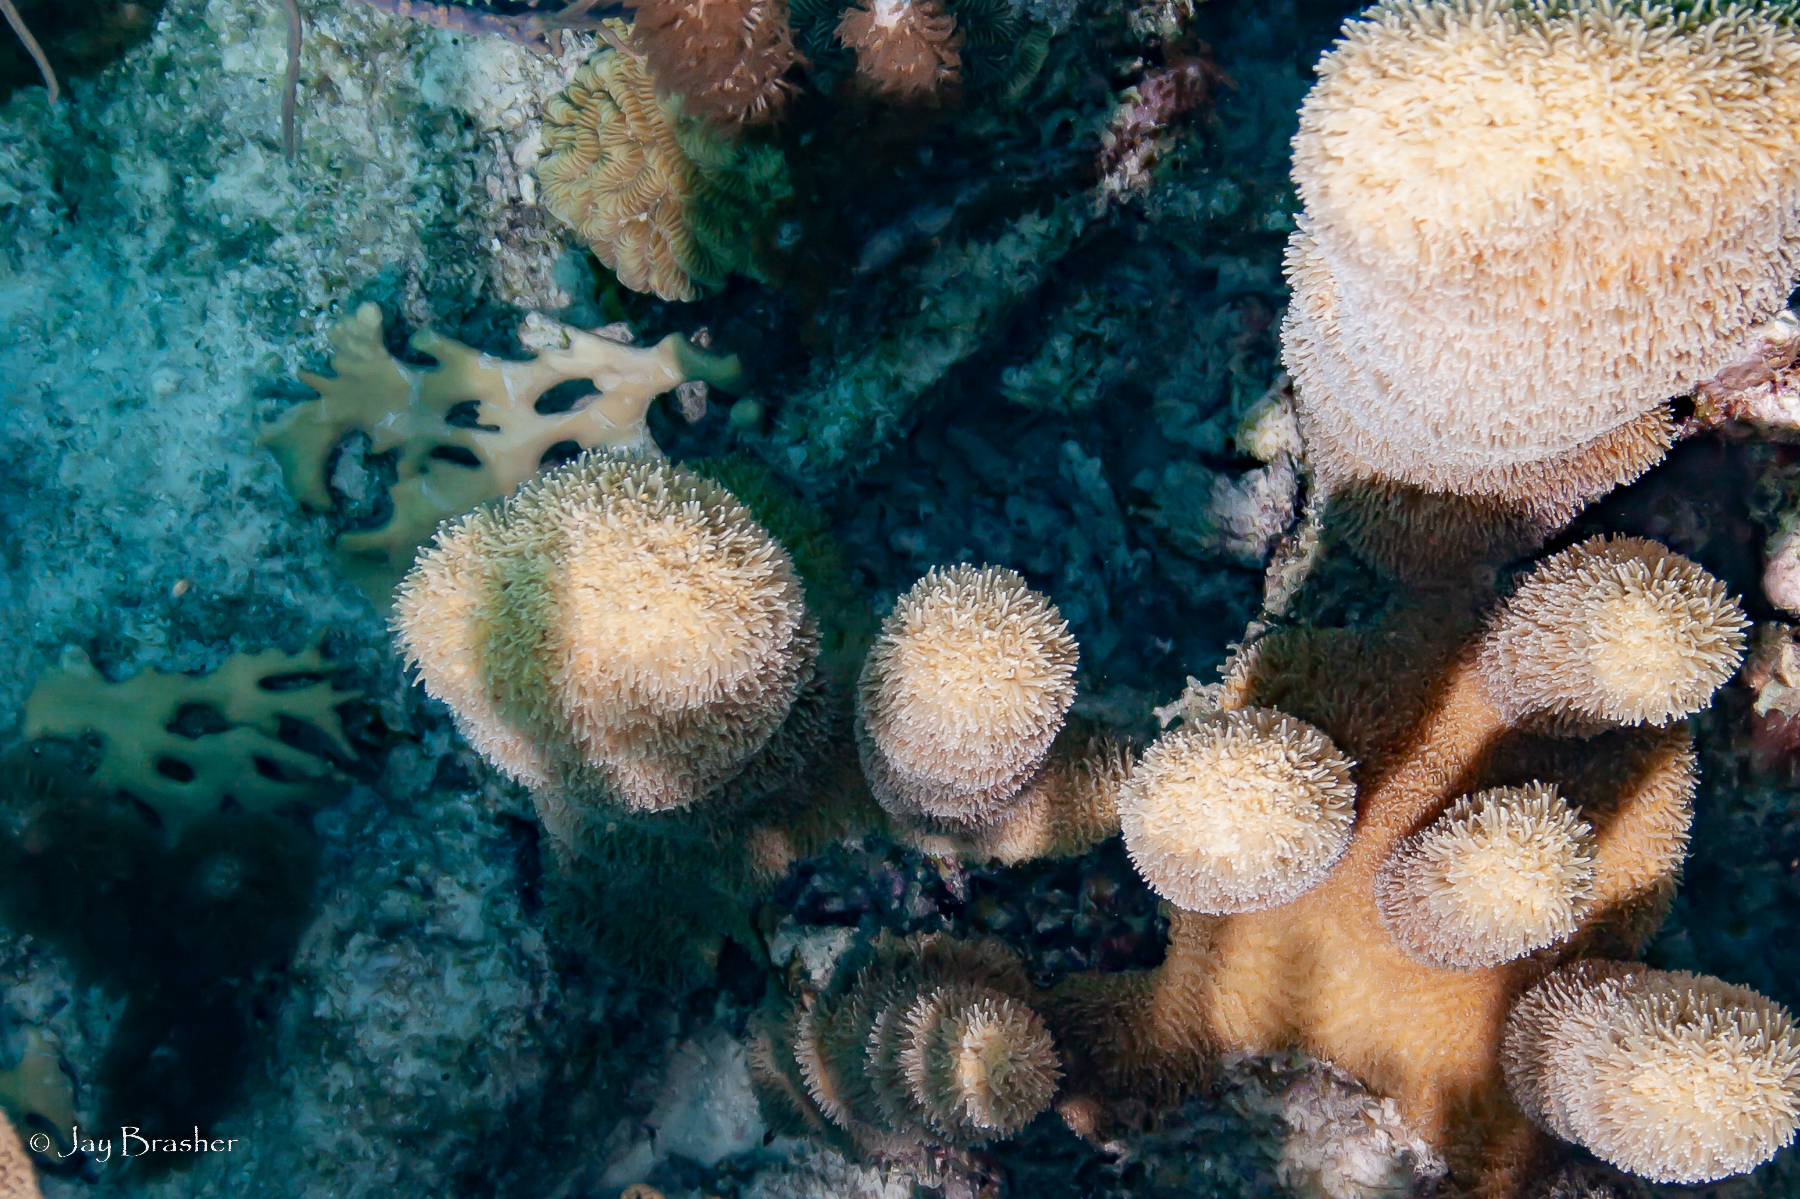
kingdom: Animalia
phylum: Cnidaria
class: Anthozoa
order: Scleractinia
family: Meandrinidae
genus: Dendrogyra
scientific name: Dendrogyra cylindrus
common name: Pillar coral
